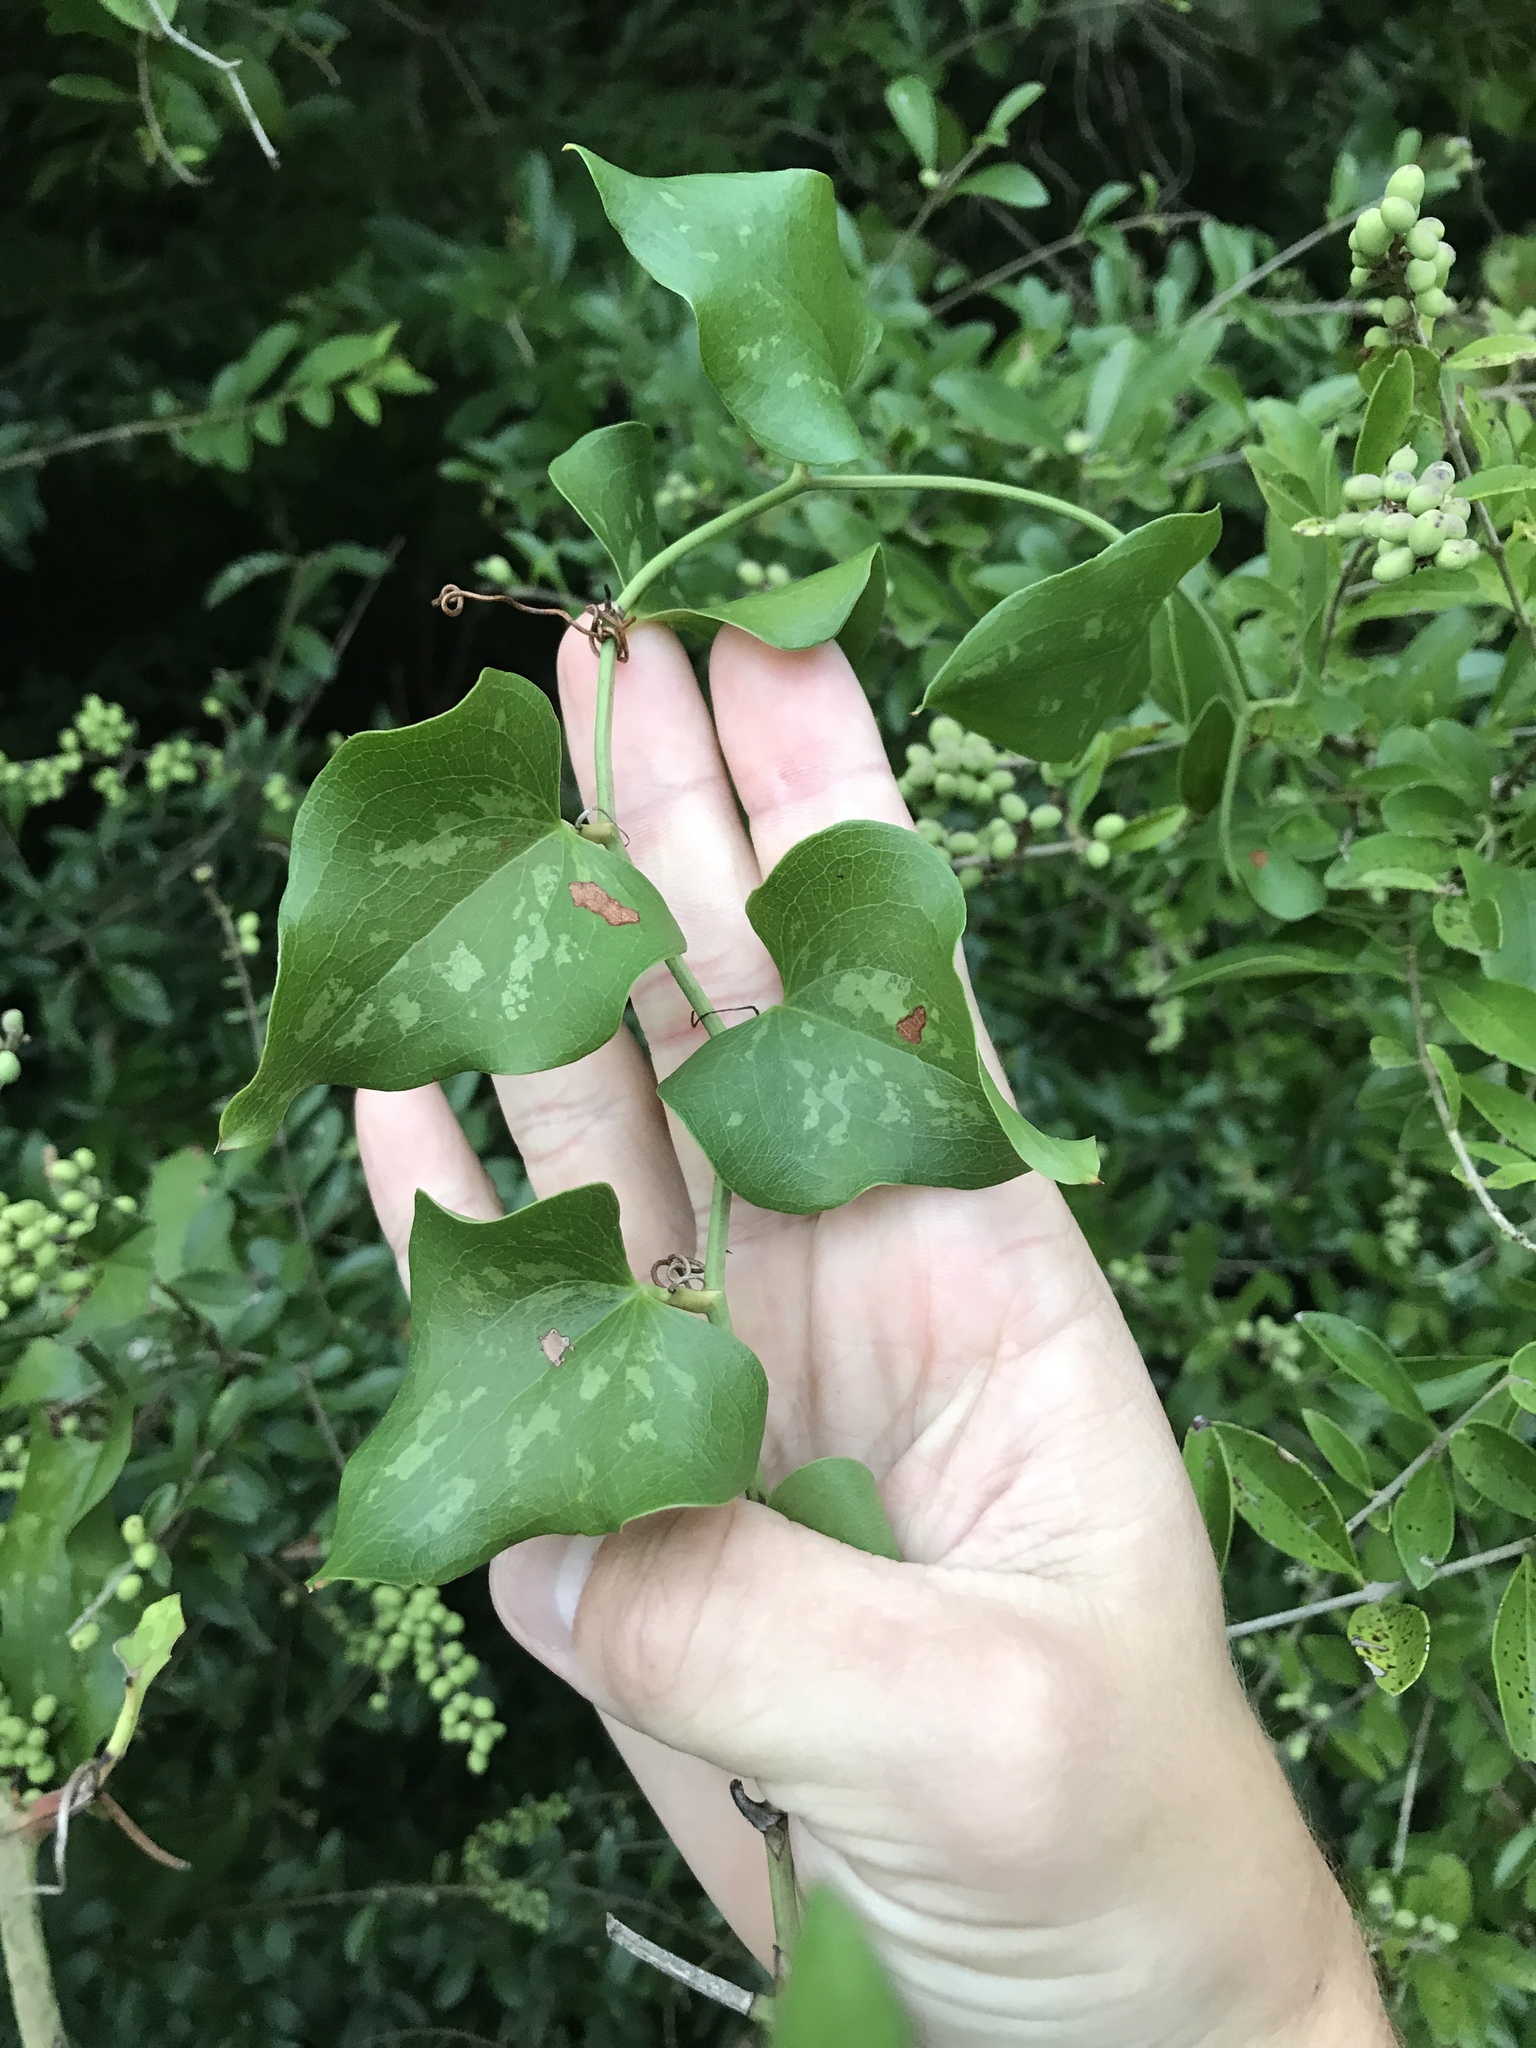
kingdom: Plantae
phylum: Tracheophyta
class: Liliopsida
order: Liliales
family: Smilacaceae
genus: Smilax
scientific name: Smilax bona-nox
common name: Catbrier
